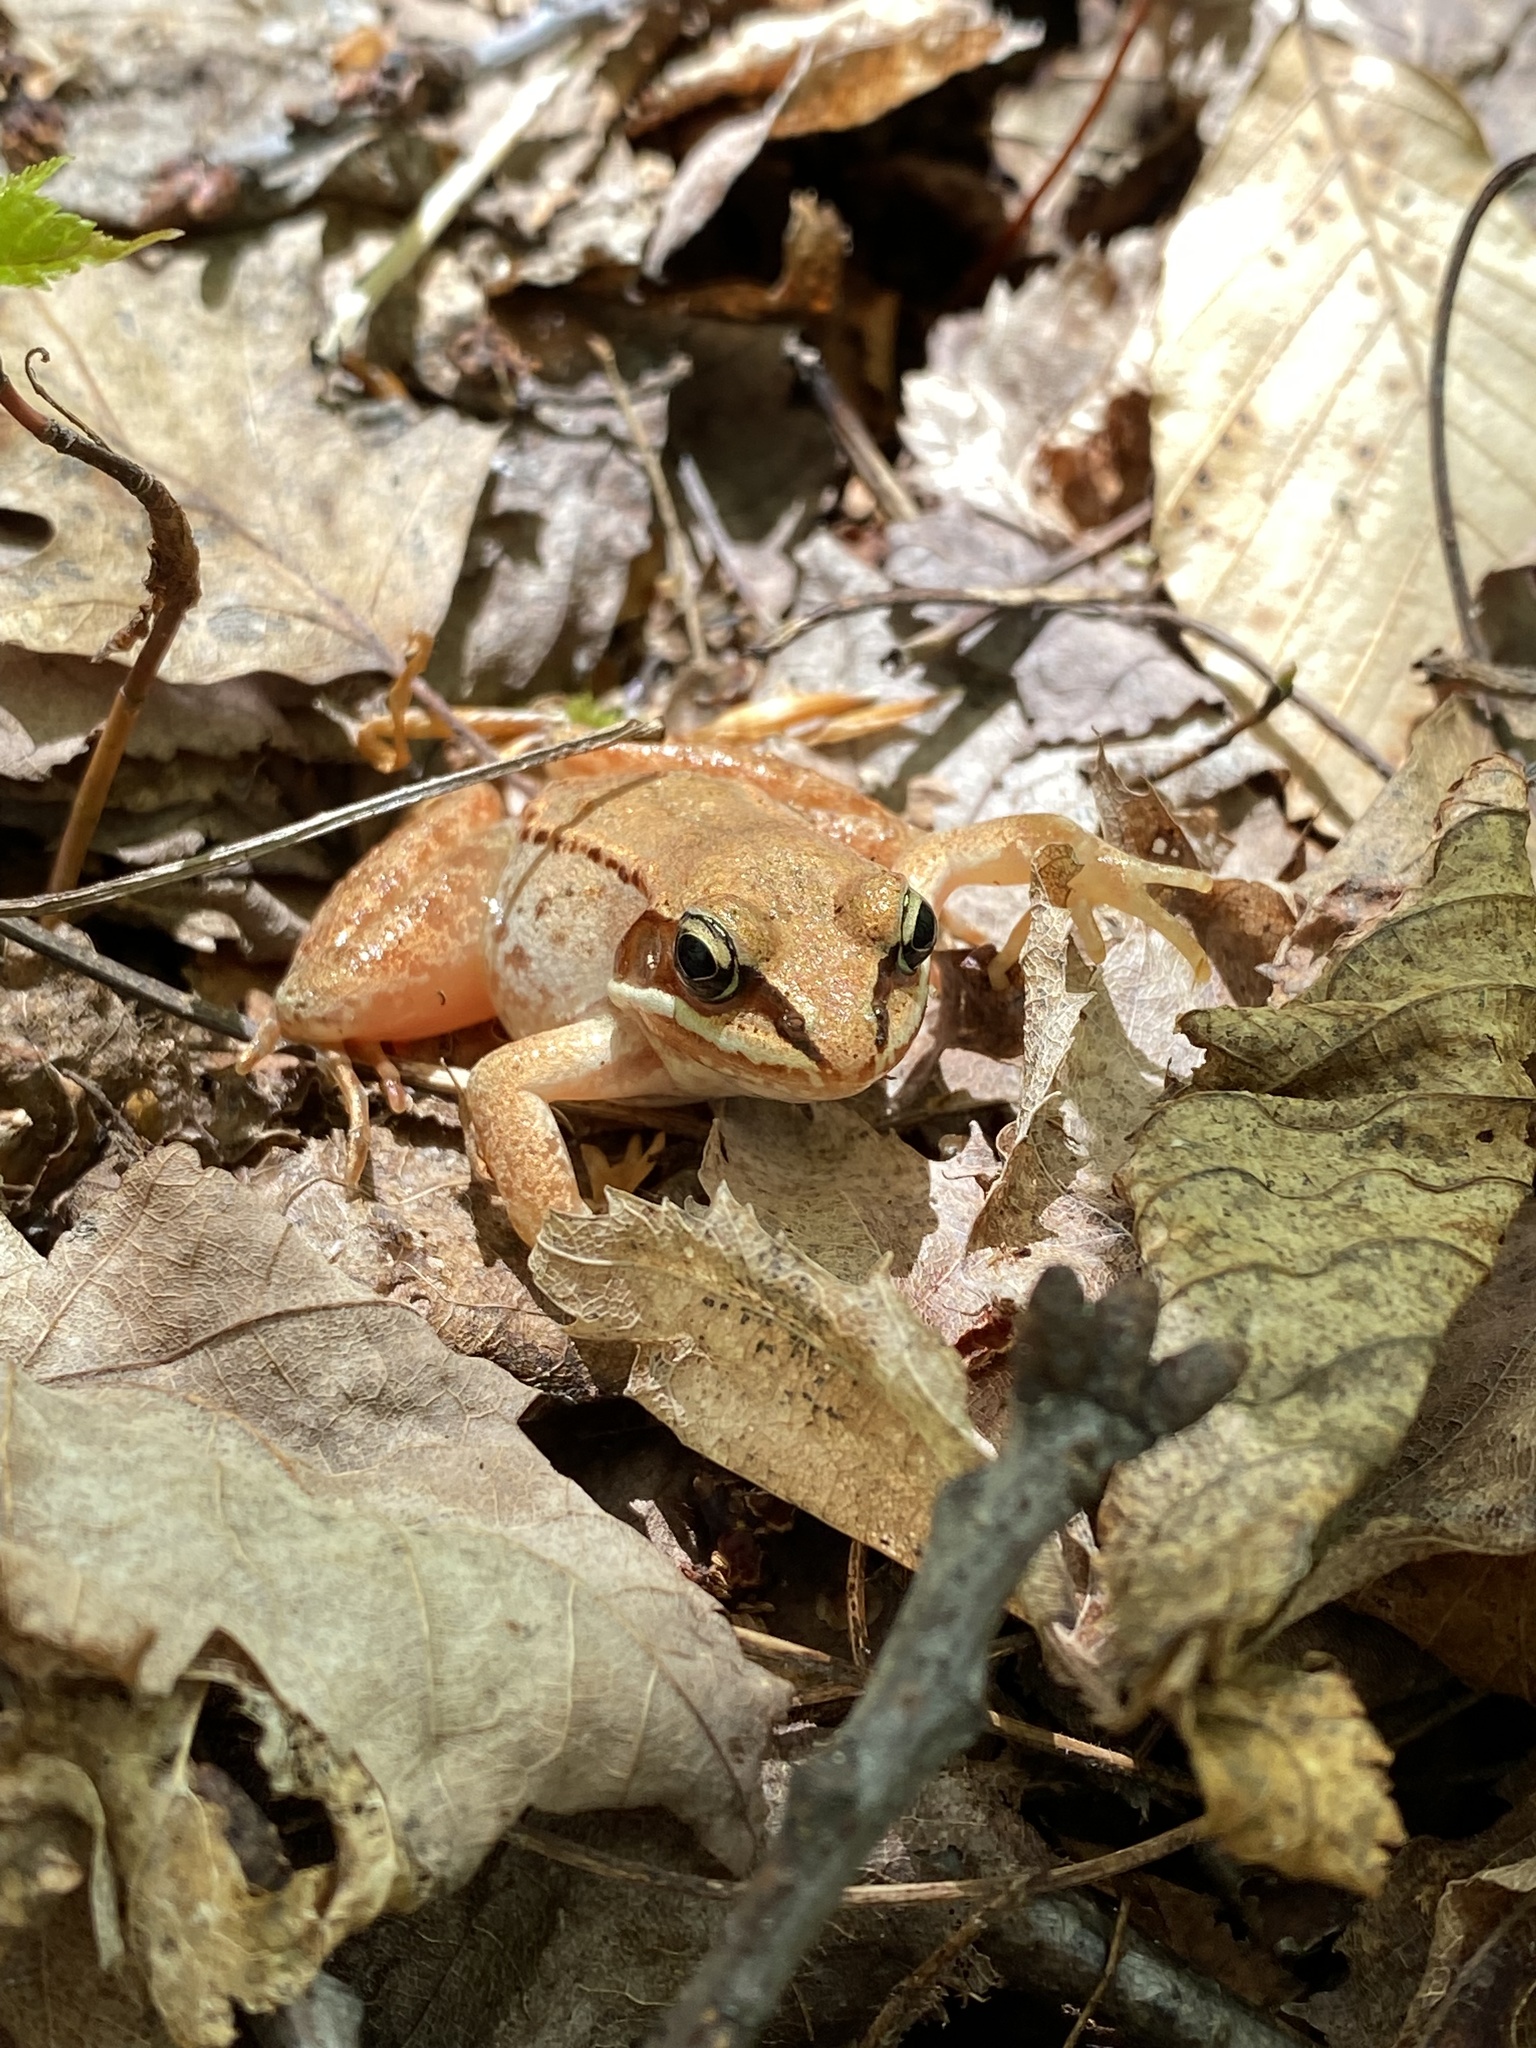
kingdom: Animalia
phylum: Chordata
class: Amphibia
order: Anura
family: Ranidae
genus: Lithobates
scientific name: Lithobates sylvaticus
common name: Wood frog
